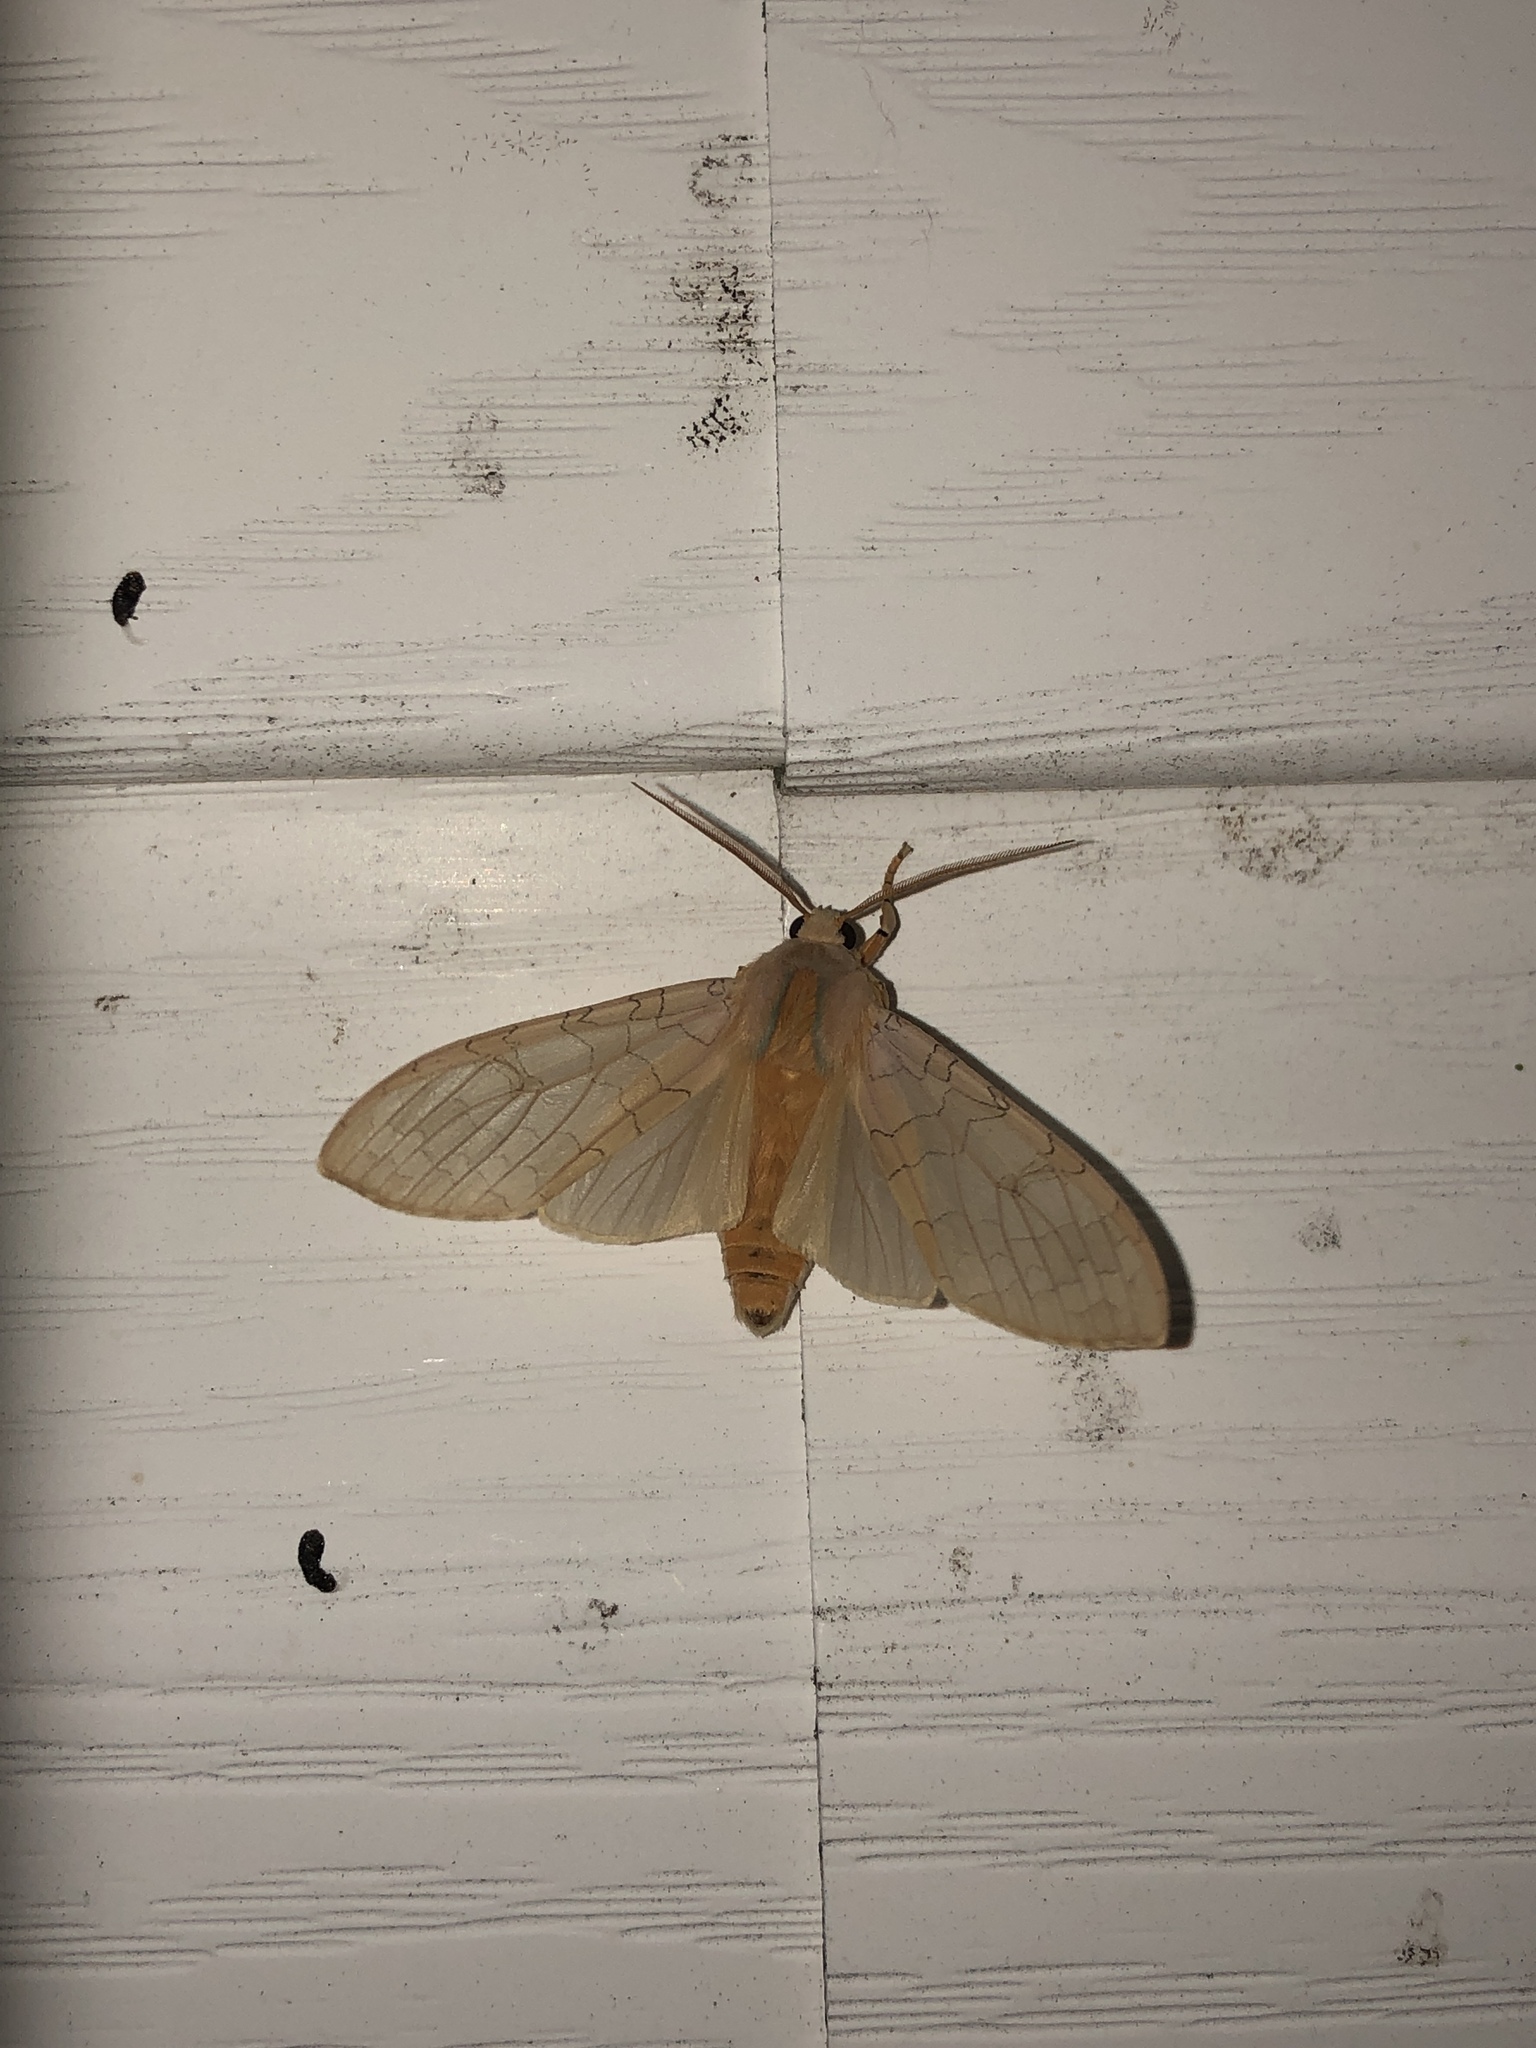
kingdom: Animalia
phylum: Arthropoda
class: Insecta
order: Lepidoptera
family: Erebidae
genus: Halysidota
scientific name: Halysidota tessellaris
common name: Banded tussock moth
